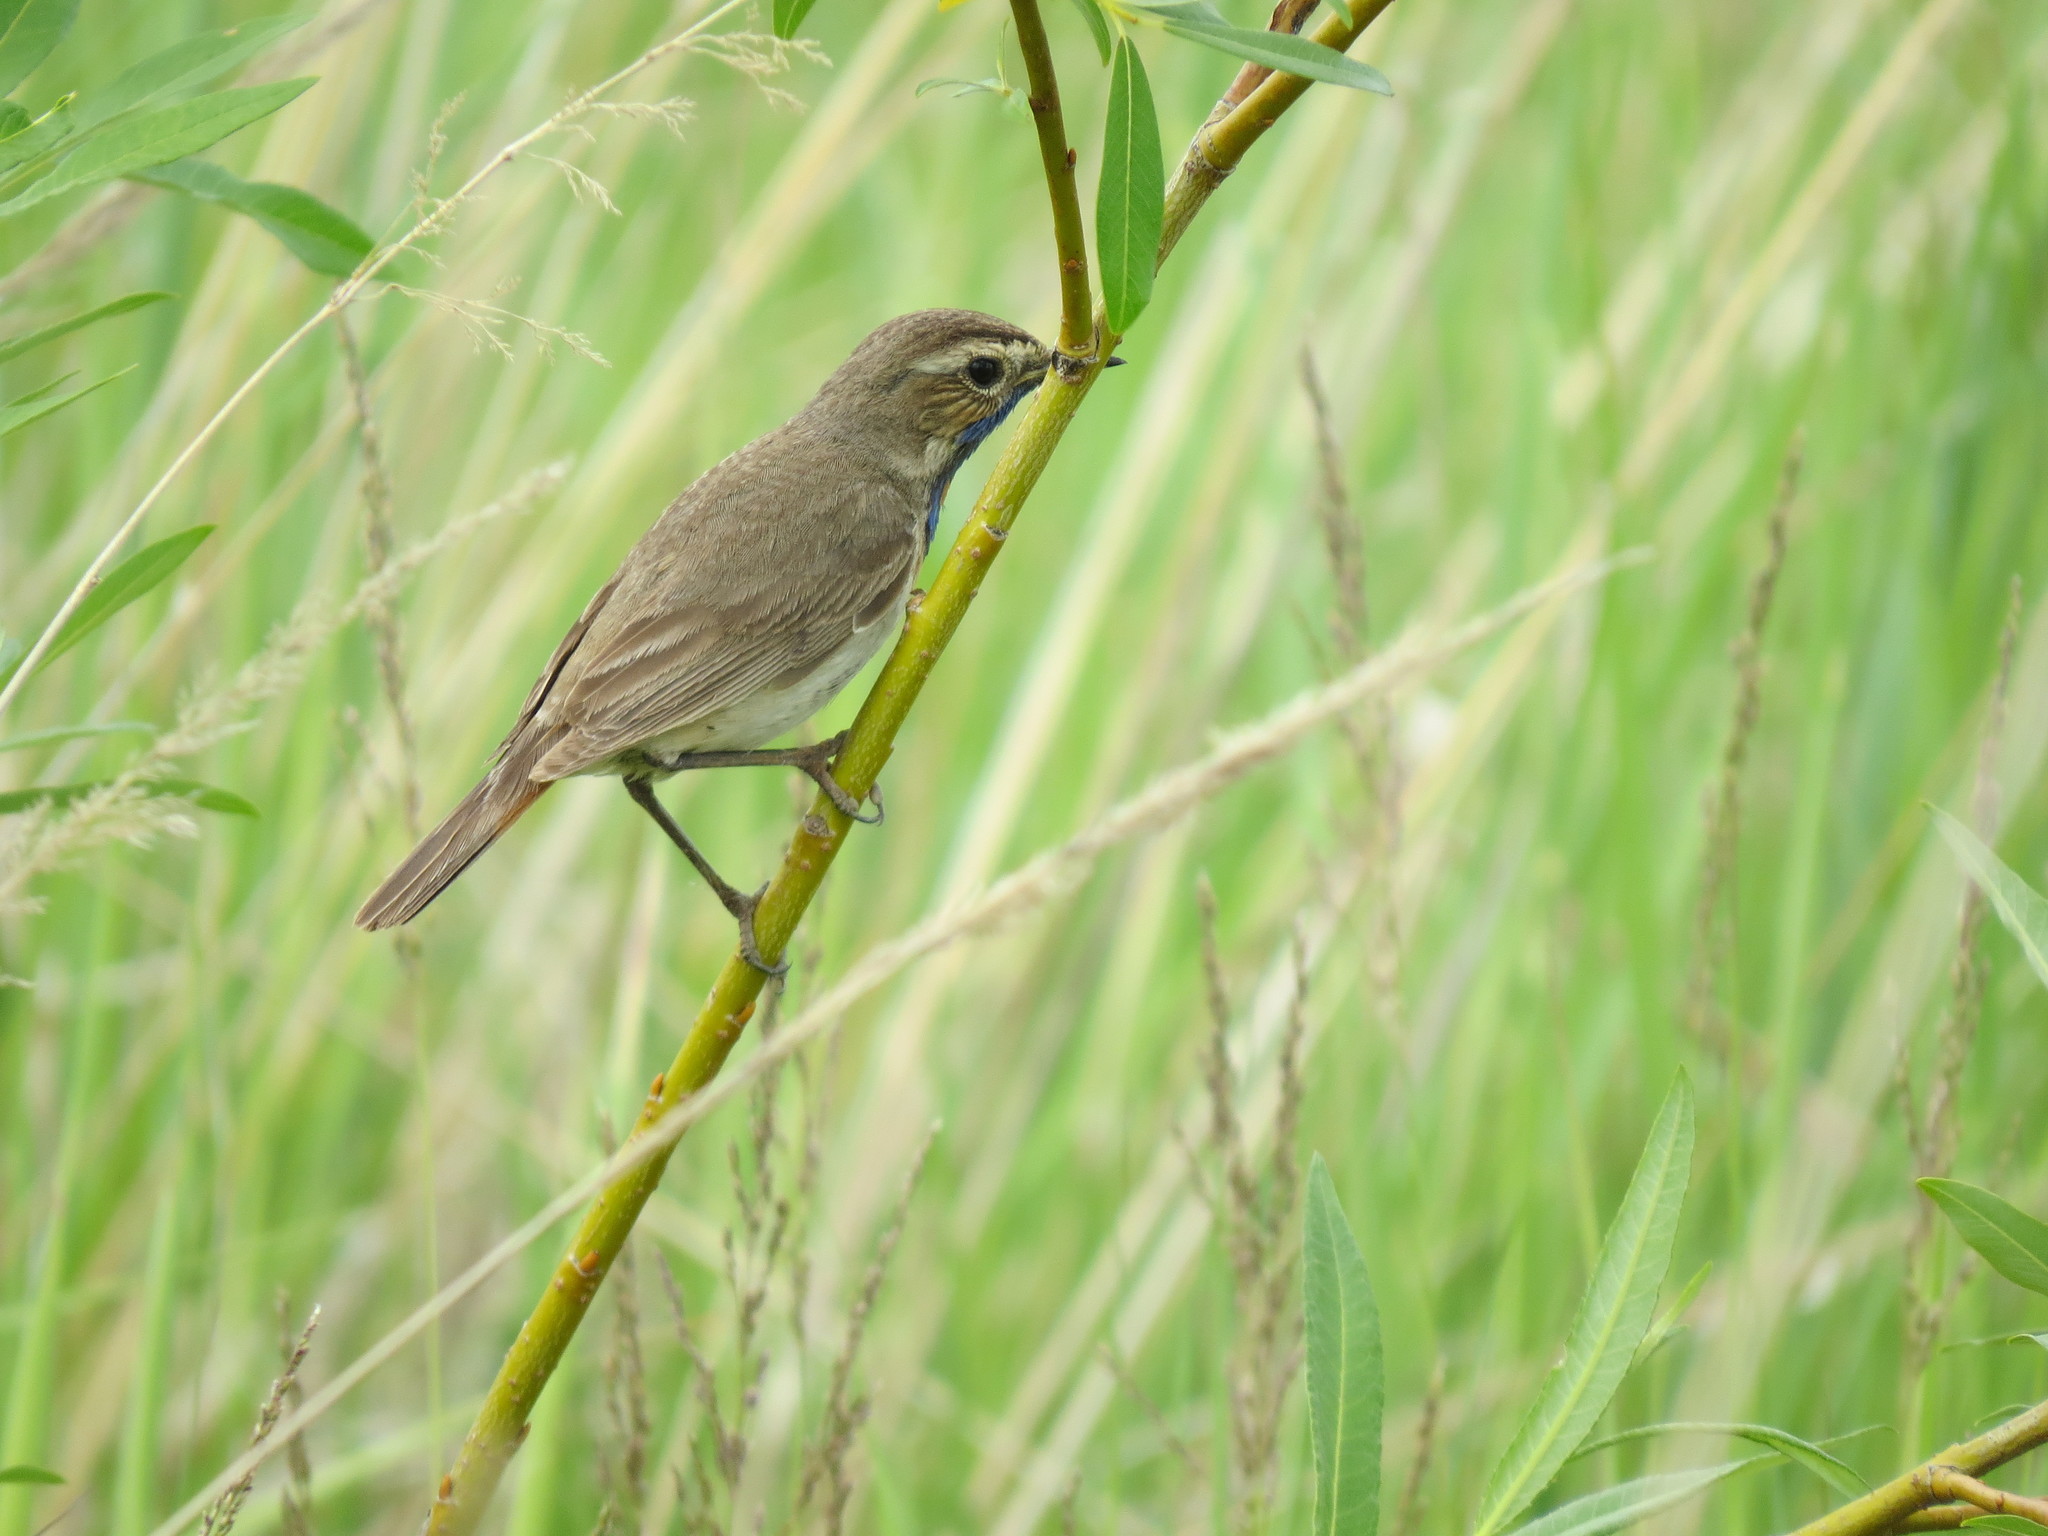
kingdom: Animalia
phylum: Chordata
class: Aves
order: Passeriformes
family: Muscicapidae
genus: Luscinia
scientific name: Luscinia svecica
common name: Bluethroat
